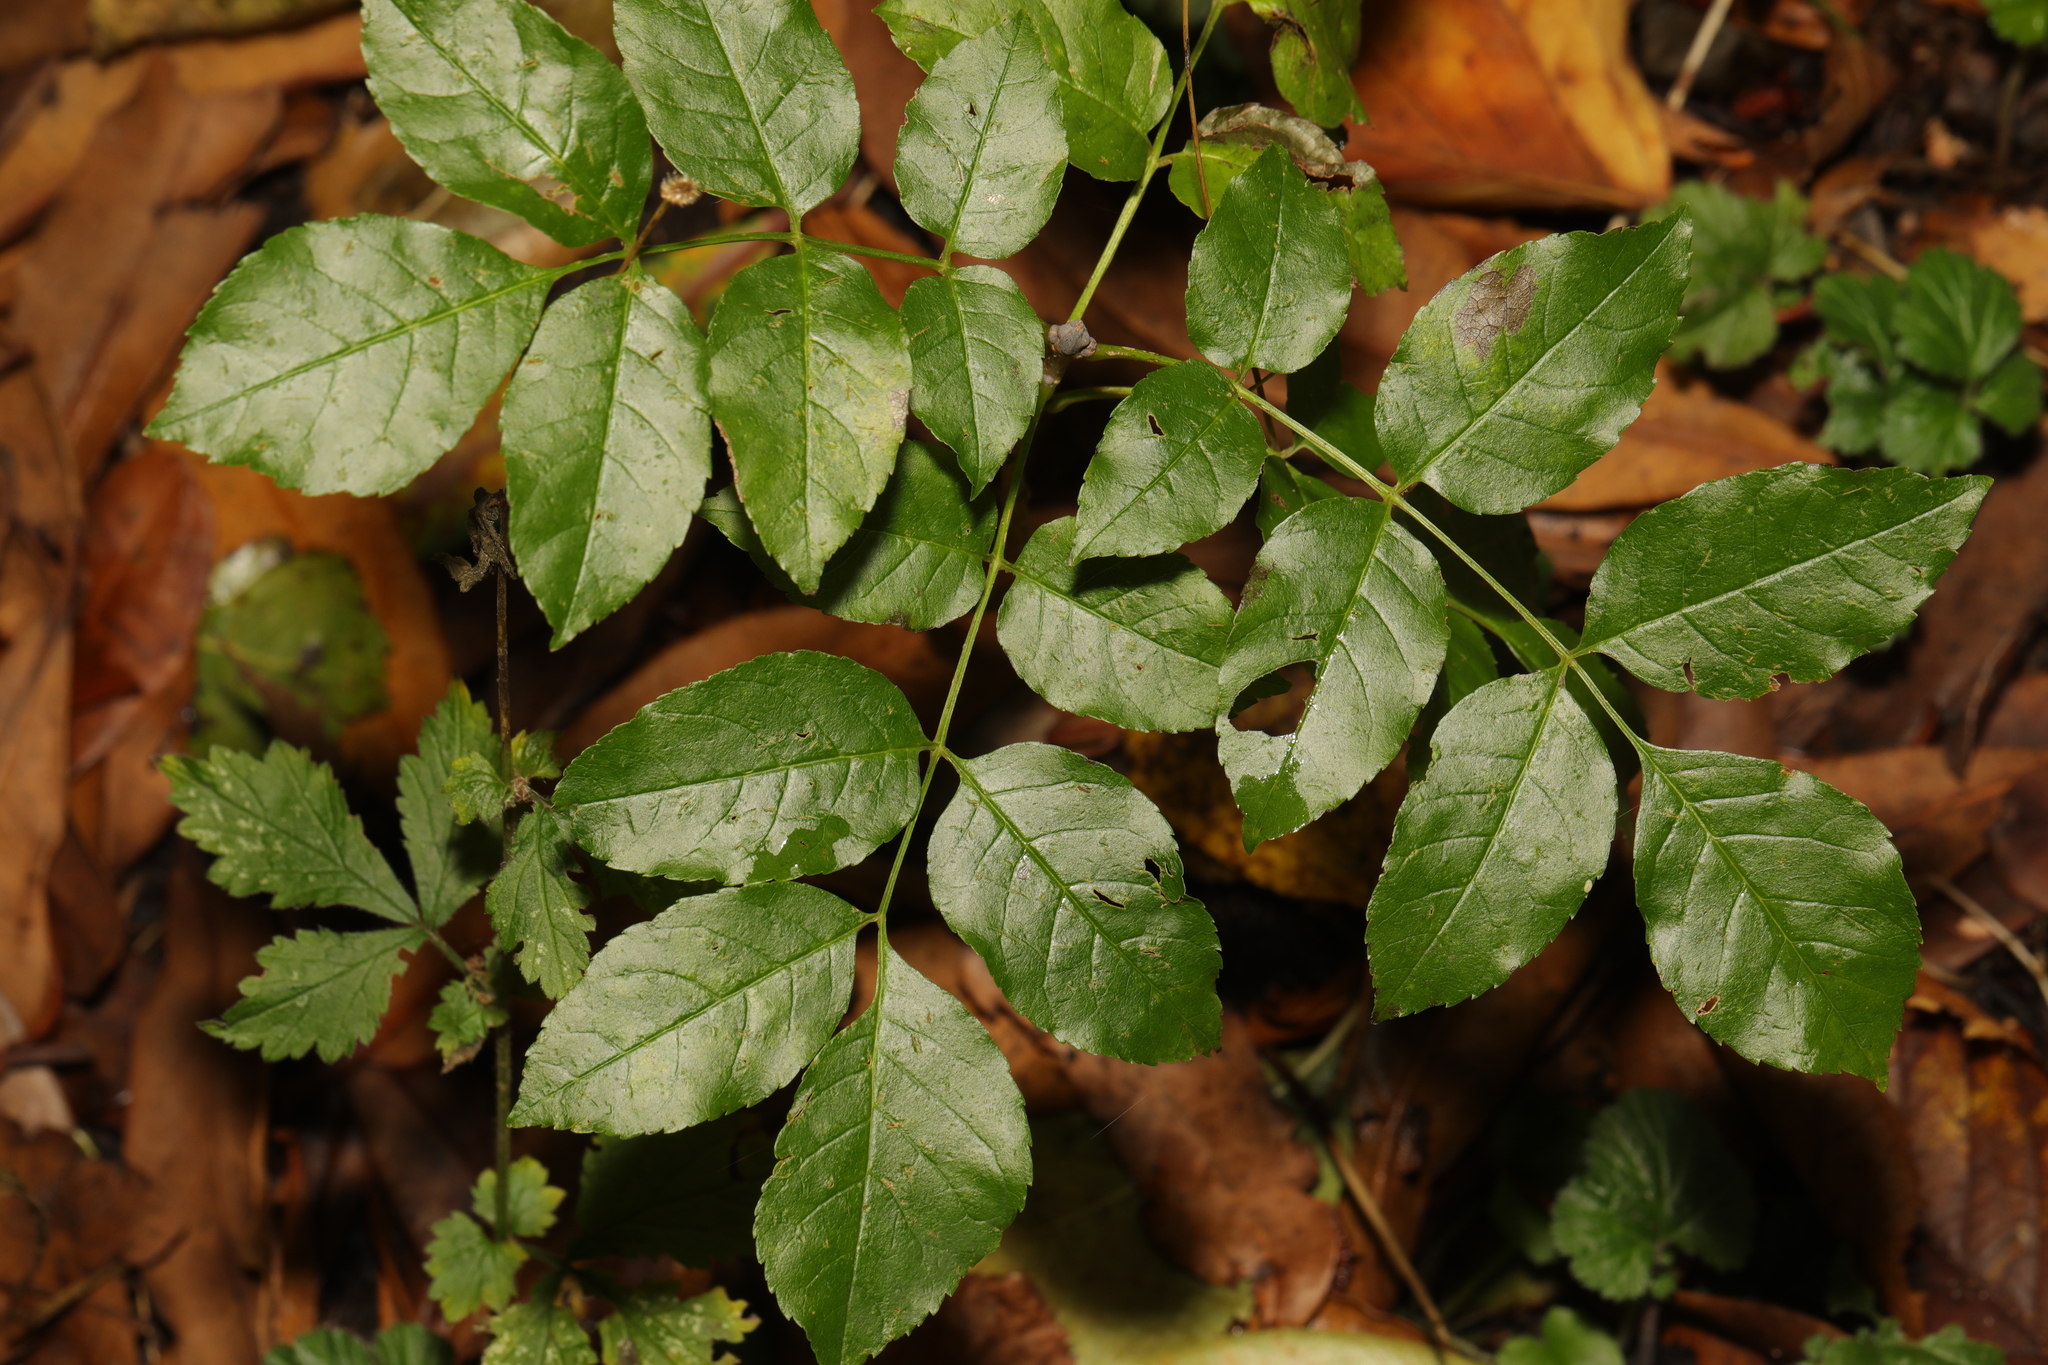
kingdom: Plantae
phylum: Tracheophyta
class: Magnoliopsida
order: Lamiales
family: Oleaceae
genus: Fraxinus
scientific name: Fraxinus excelsior
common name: European ash
